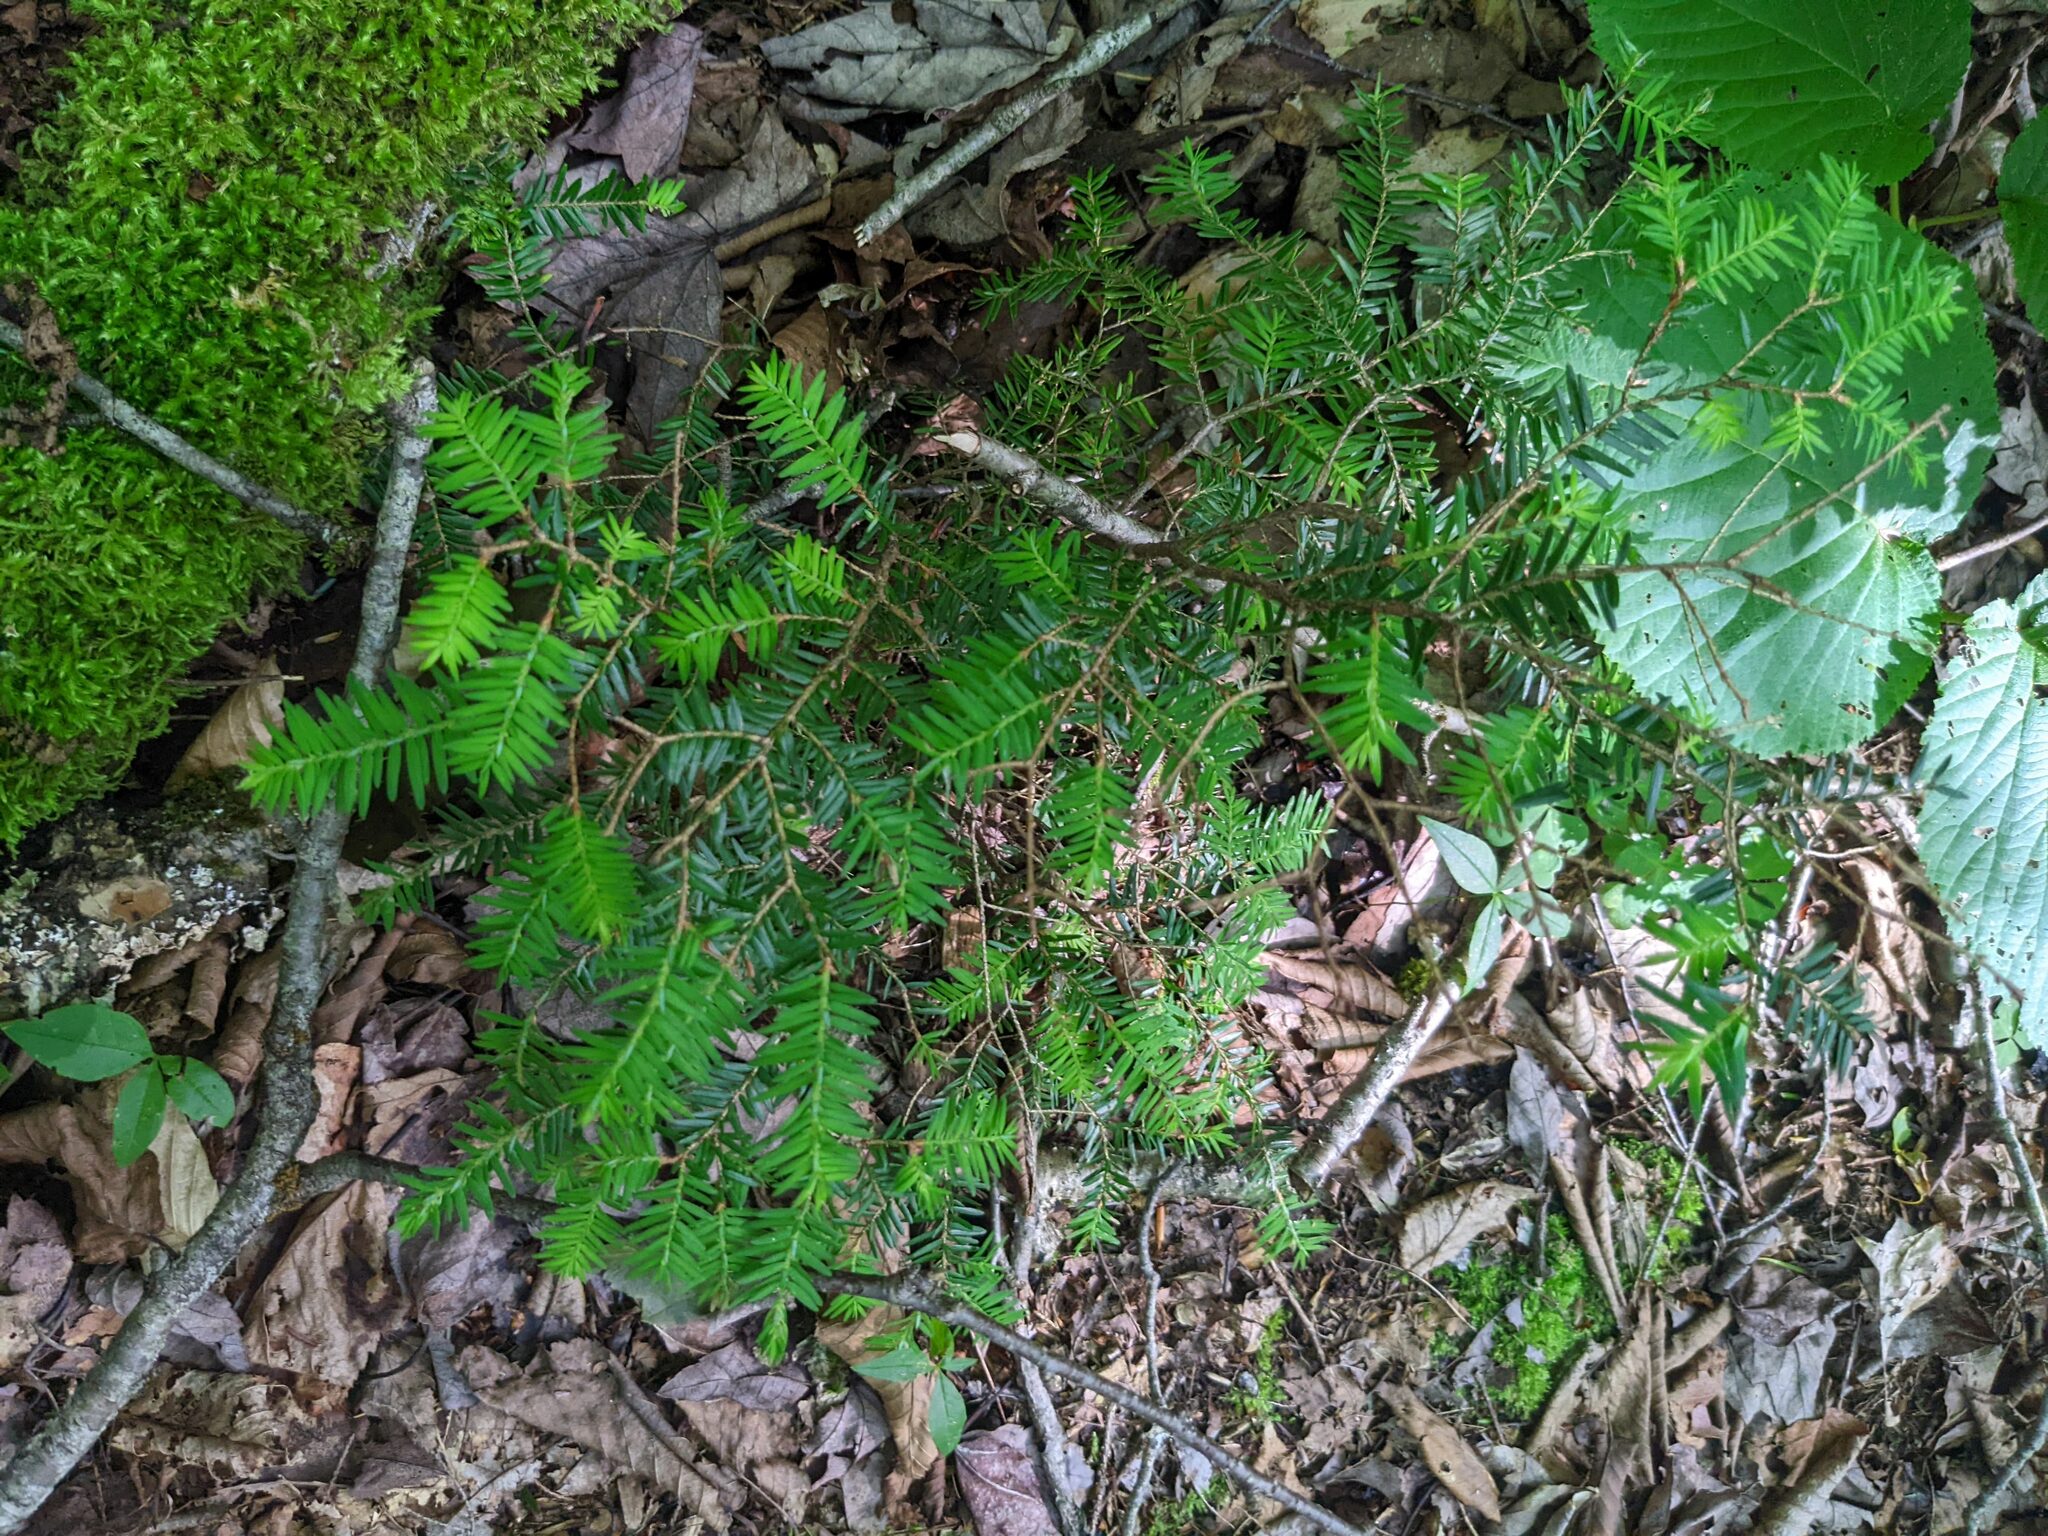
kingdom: Plantae
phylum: Tracheophyta
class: Pinopsida
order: Pinales
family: Pinaceae
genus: Tsuga
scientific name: Tsuga canadensis
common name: Eastern hemlock
